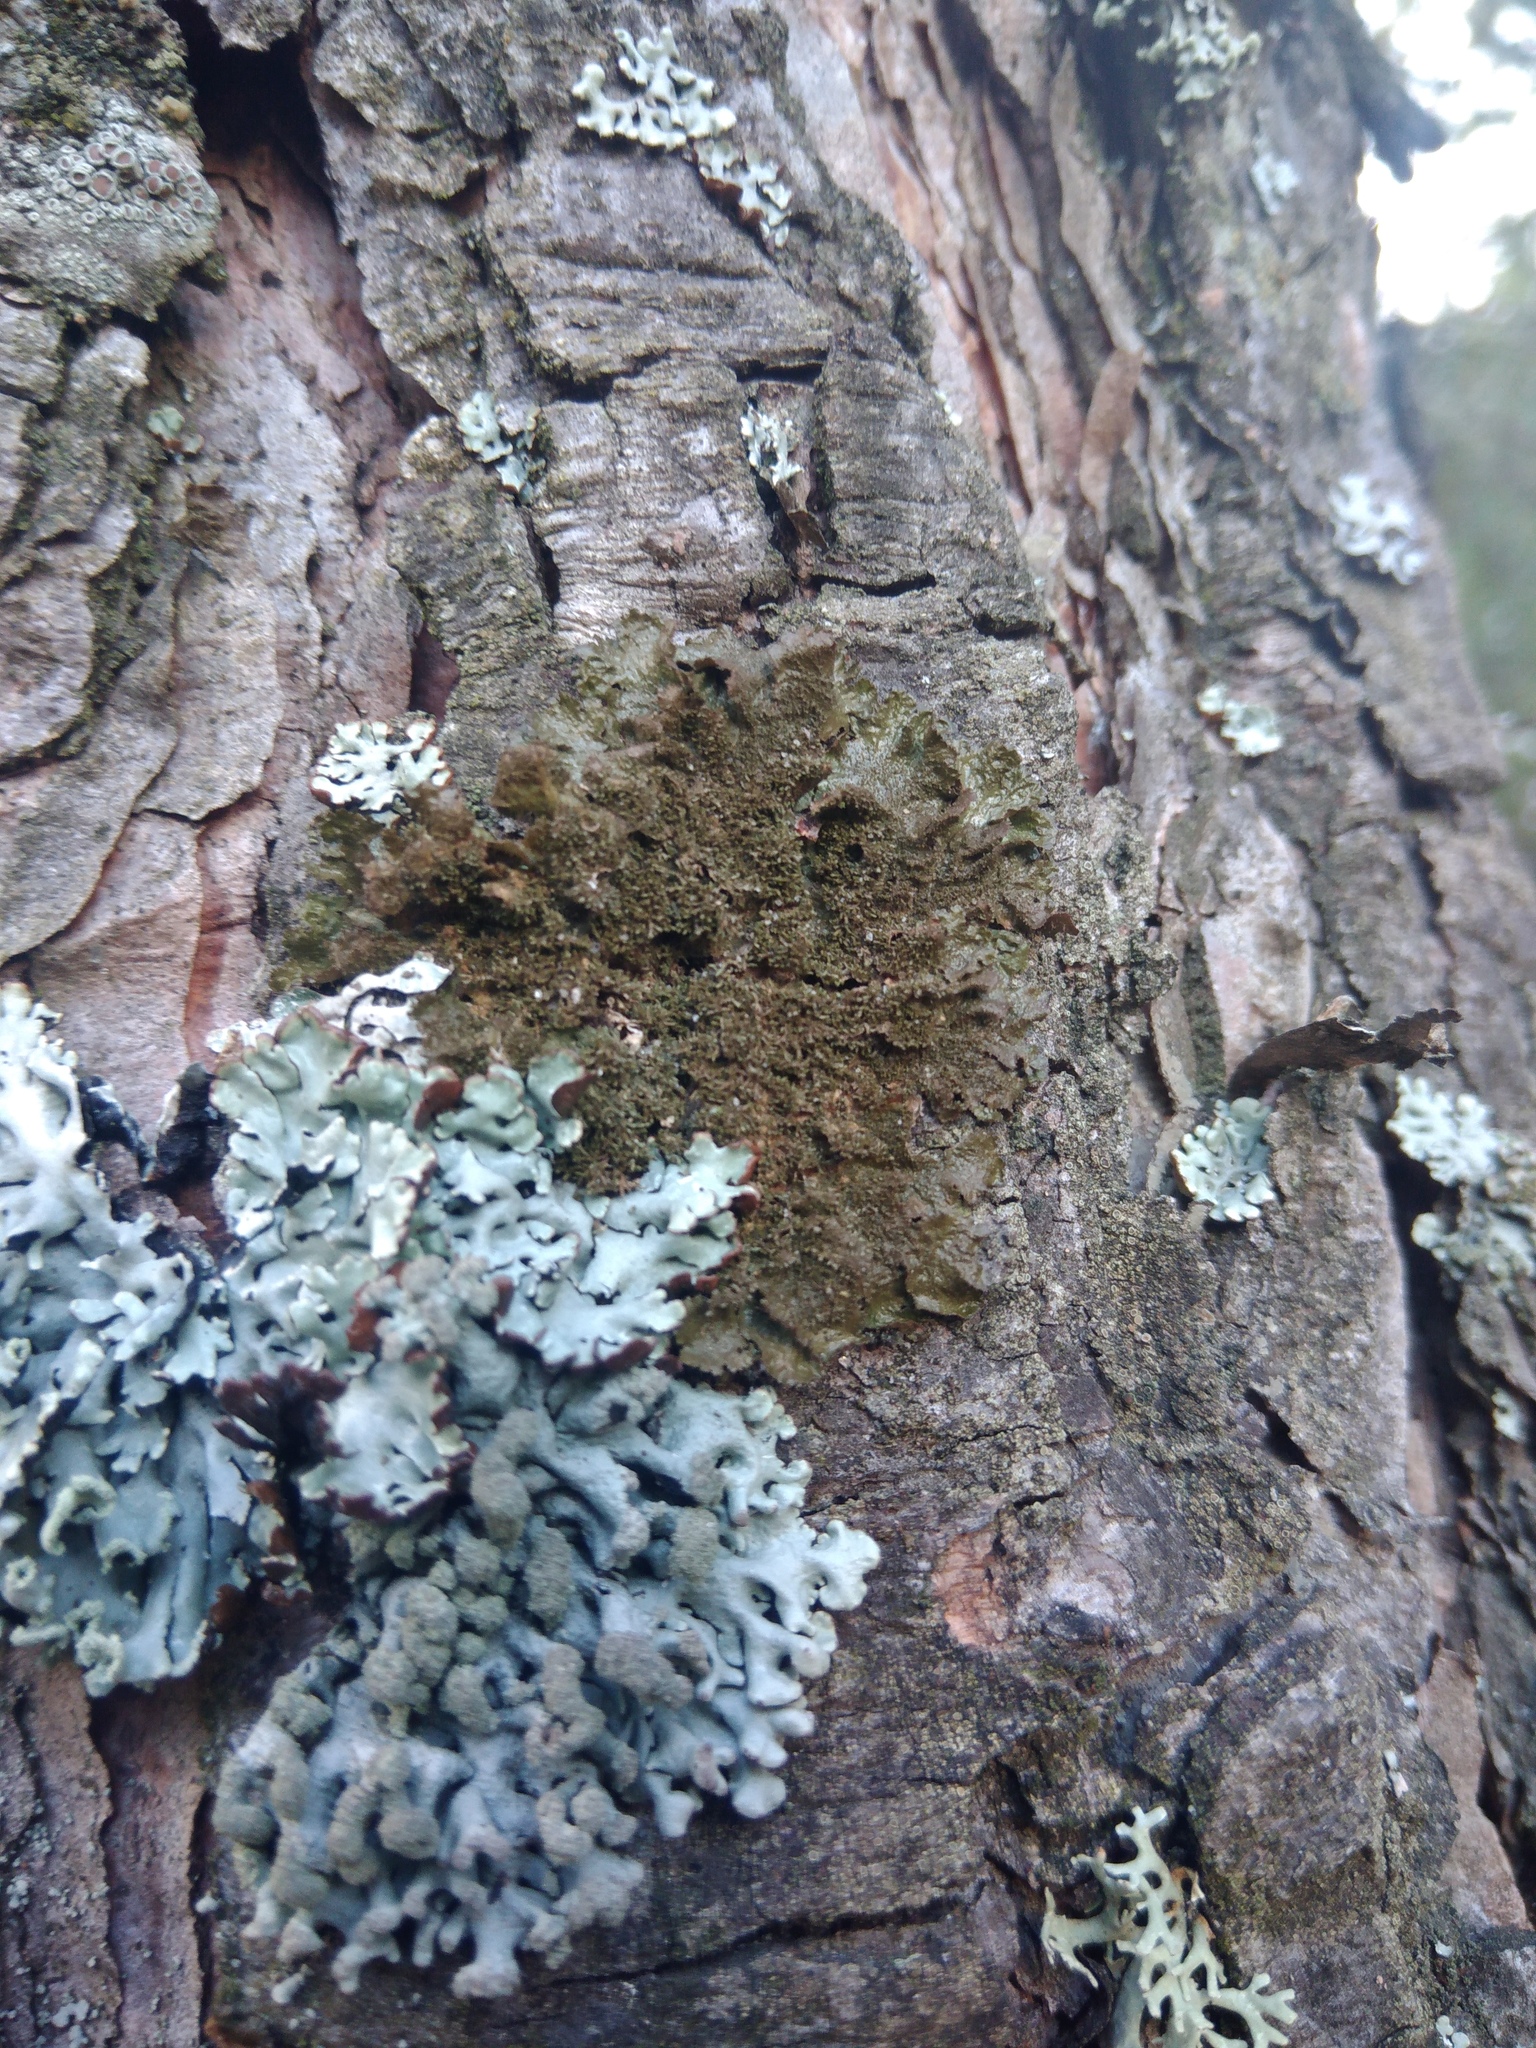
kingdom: Fungi
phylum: Ascomycota
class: Lecanoromycetes
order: Lecanorales
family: Parmeliaceae
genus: Melanohalea
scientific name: Melanohalea exasperatula
